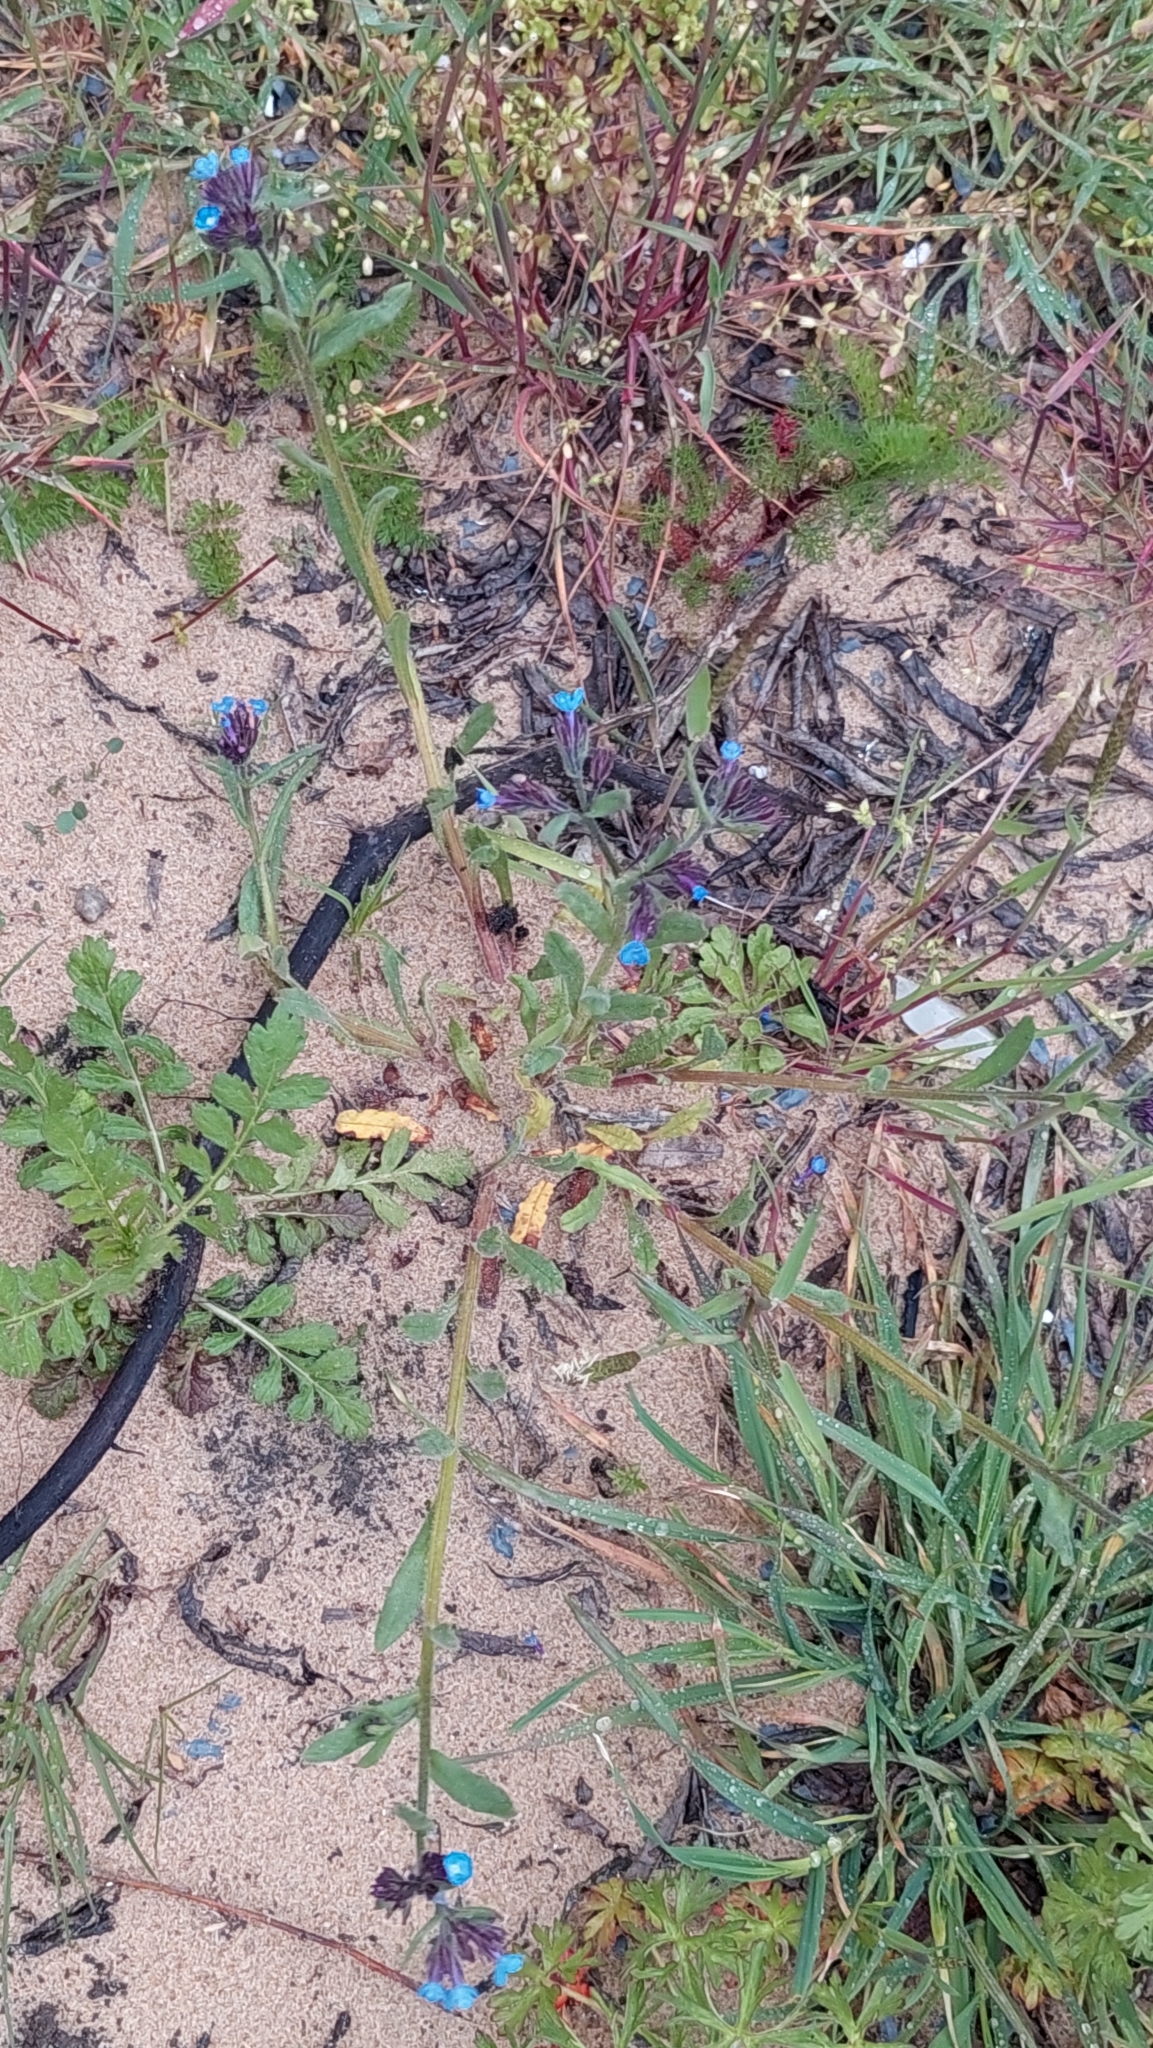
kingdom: Plantae
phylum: Tracheophyta
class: Magnoliopsida
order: Boraginales
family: Boraginaceae
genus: Anchusa
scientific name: Anchusa azurea
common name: Garden anchusa
